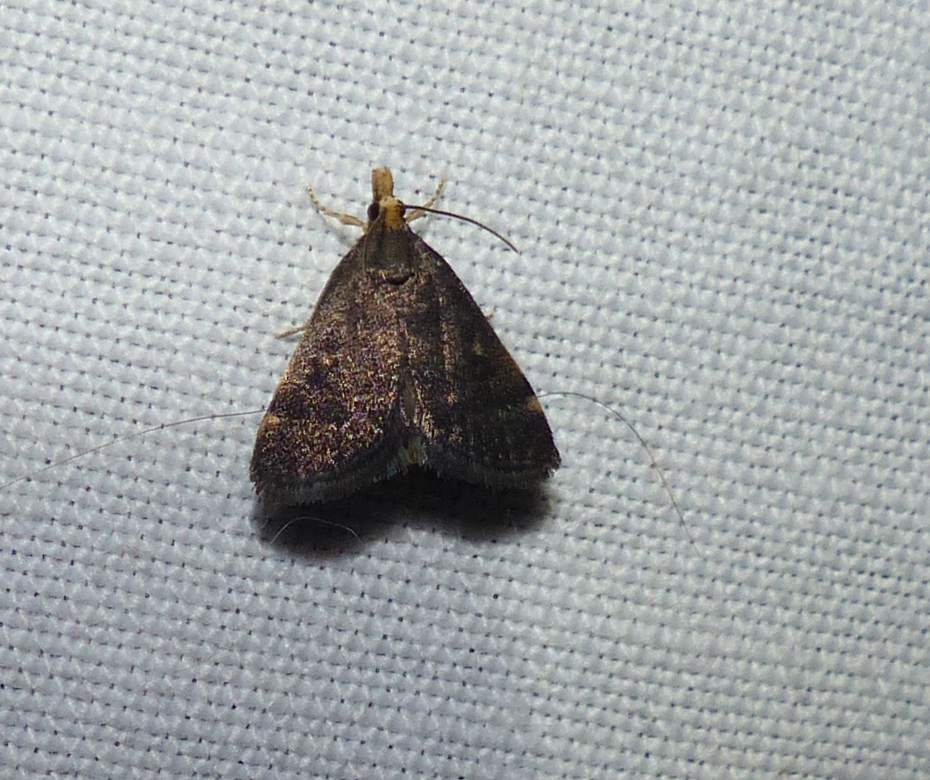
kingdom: Animalia
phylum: Arthropoda
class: Insecta
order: Lepidoptera
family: Crambidae
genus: Pyrausta
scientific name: Pyrausta merrickalis
